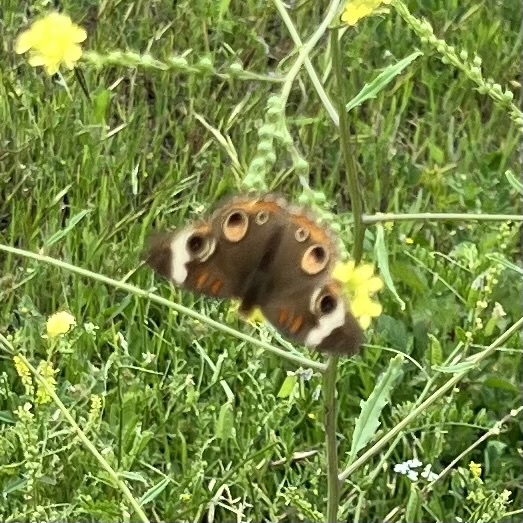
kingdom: Animalia
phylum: Arthropoda
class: Insecta
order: Lepidoptera
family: Nymphalidae
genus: Junonia
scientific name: Junonia coenia
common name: Common buckeye
